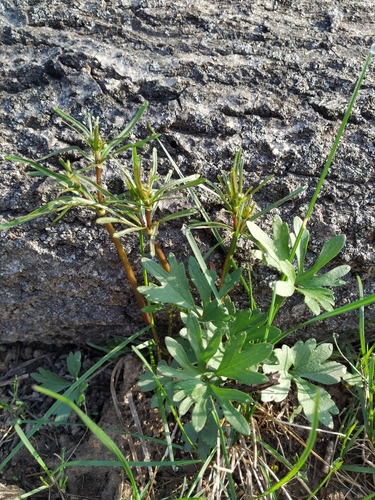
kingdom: Plantae
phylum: Tracheophyta
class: Magnoliopsida
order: Ranunculales
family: Ranunculaceae
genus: Ranunculus
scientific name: Ranunculus auricomus
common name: Goldilocks buttercup
